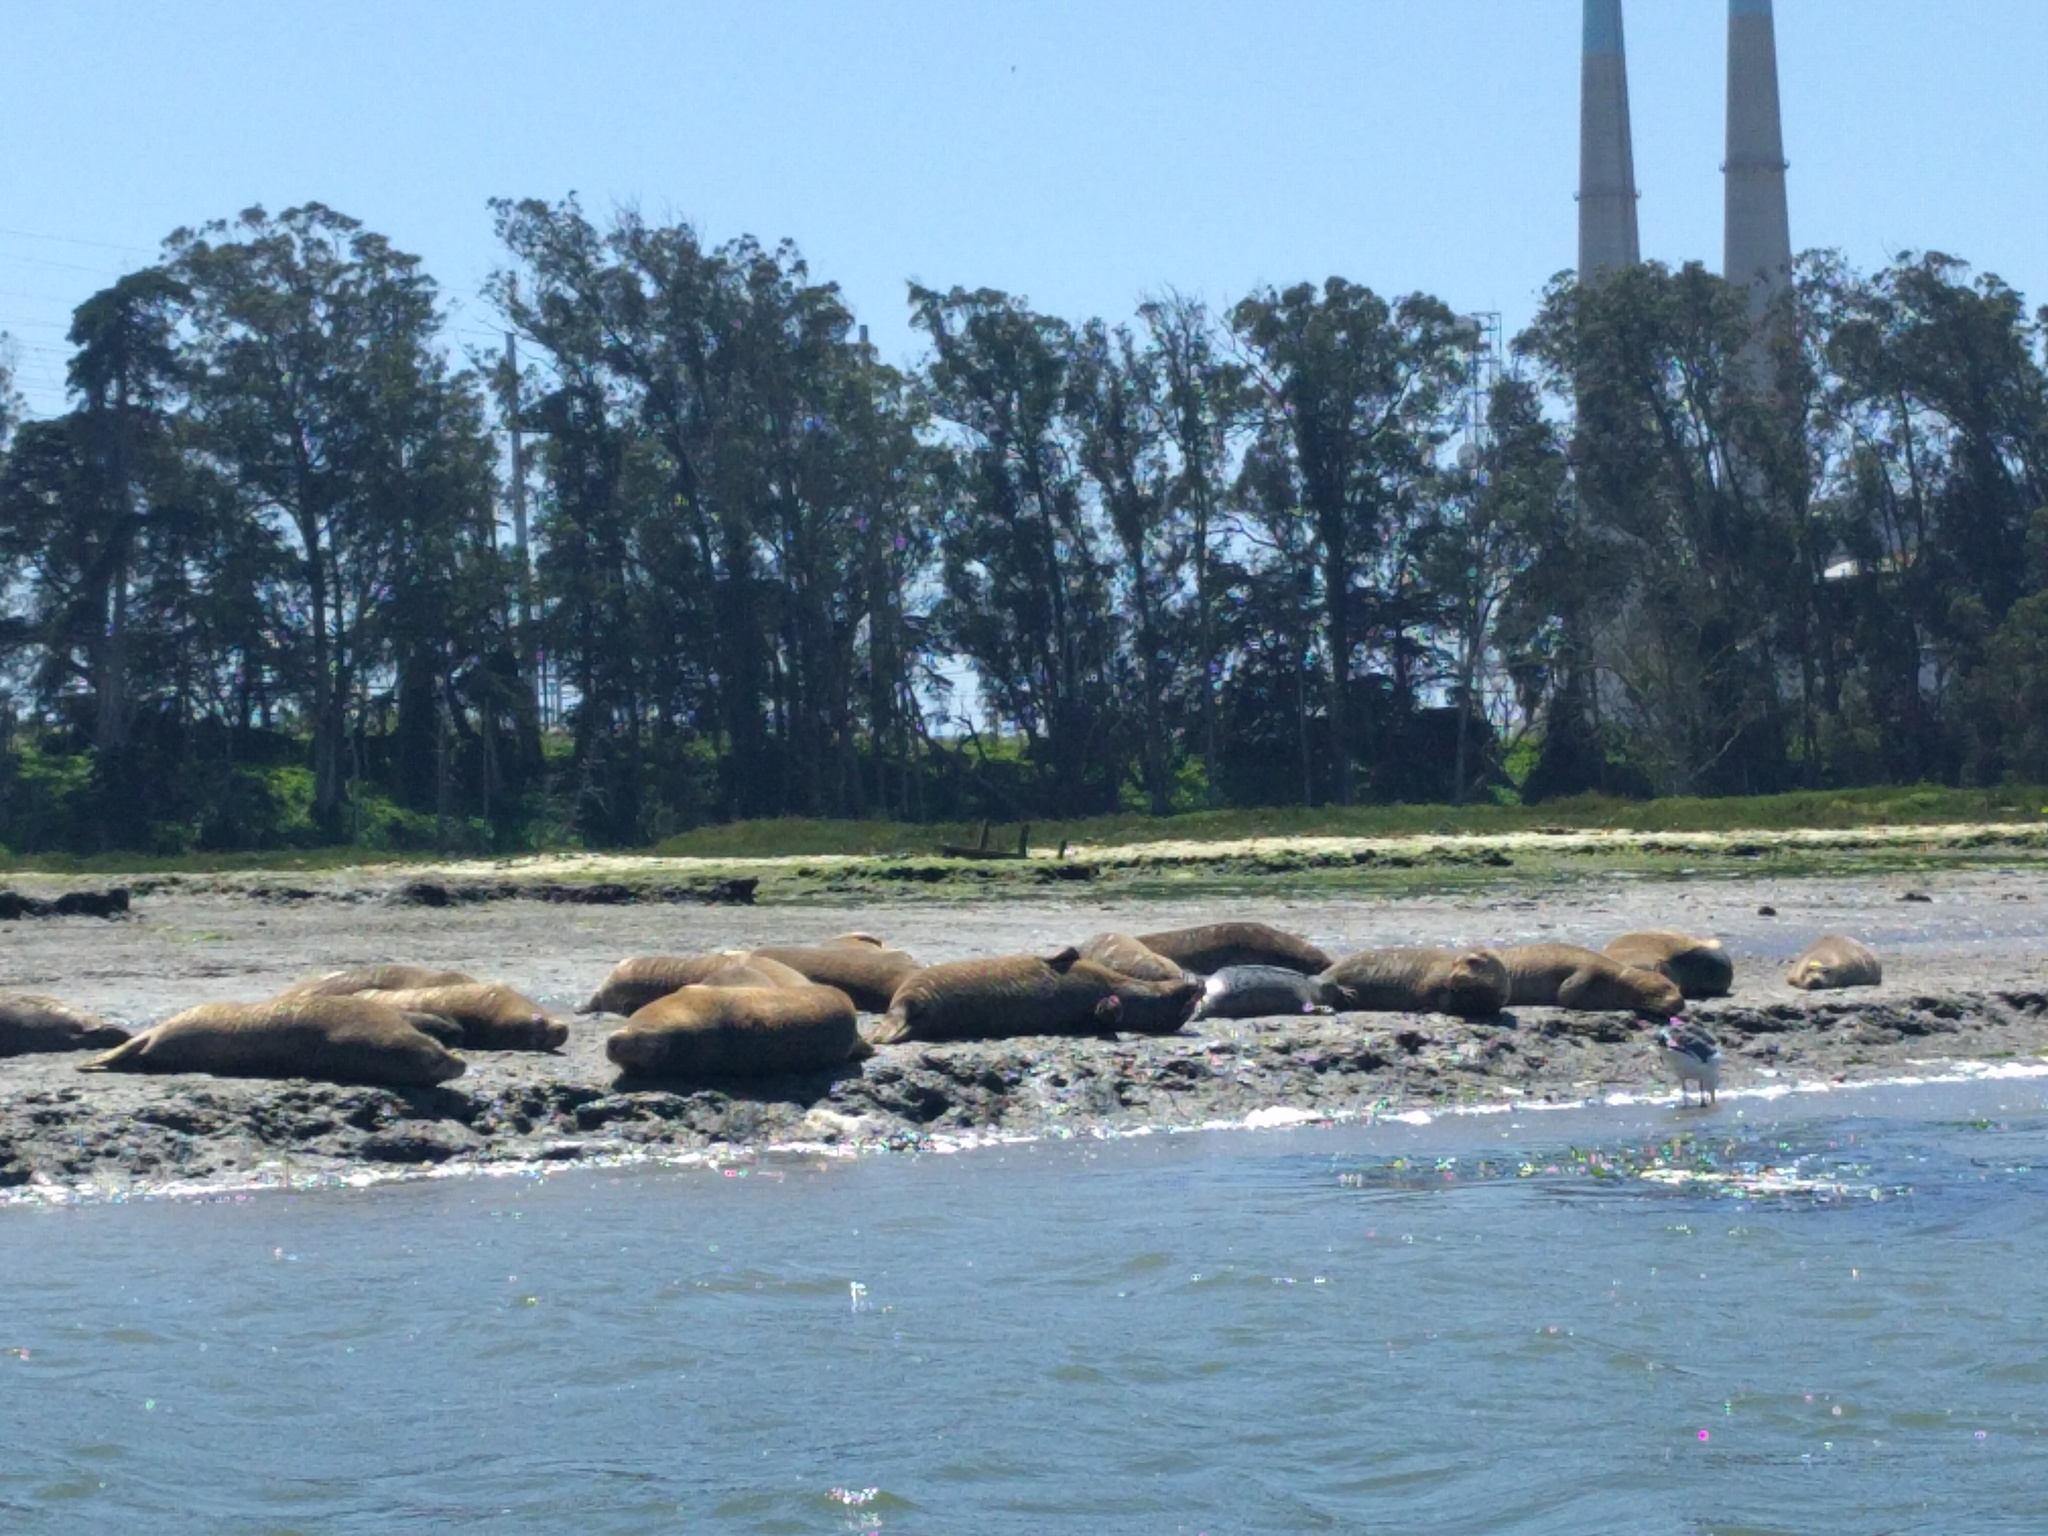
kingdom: Animalia
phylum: Chordata
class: Mammalia
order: Carnivora
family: Phocidae
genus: Phoca
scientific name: Phoca vitulina
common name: Harbor seal
